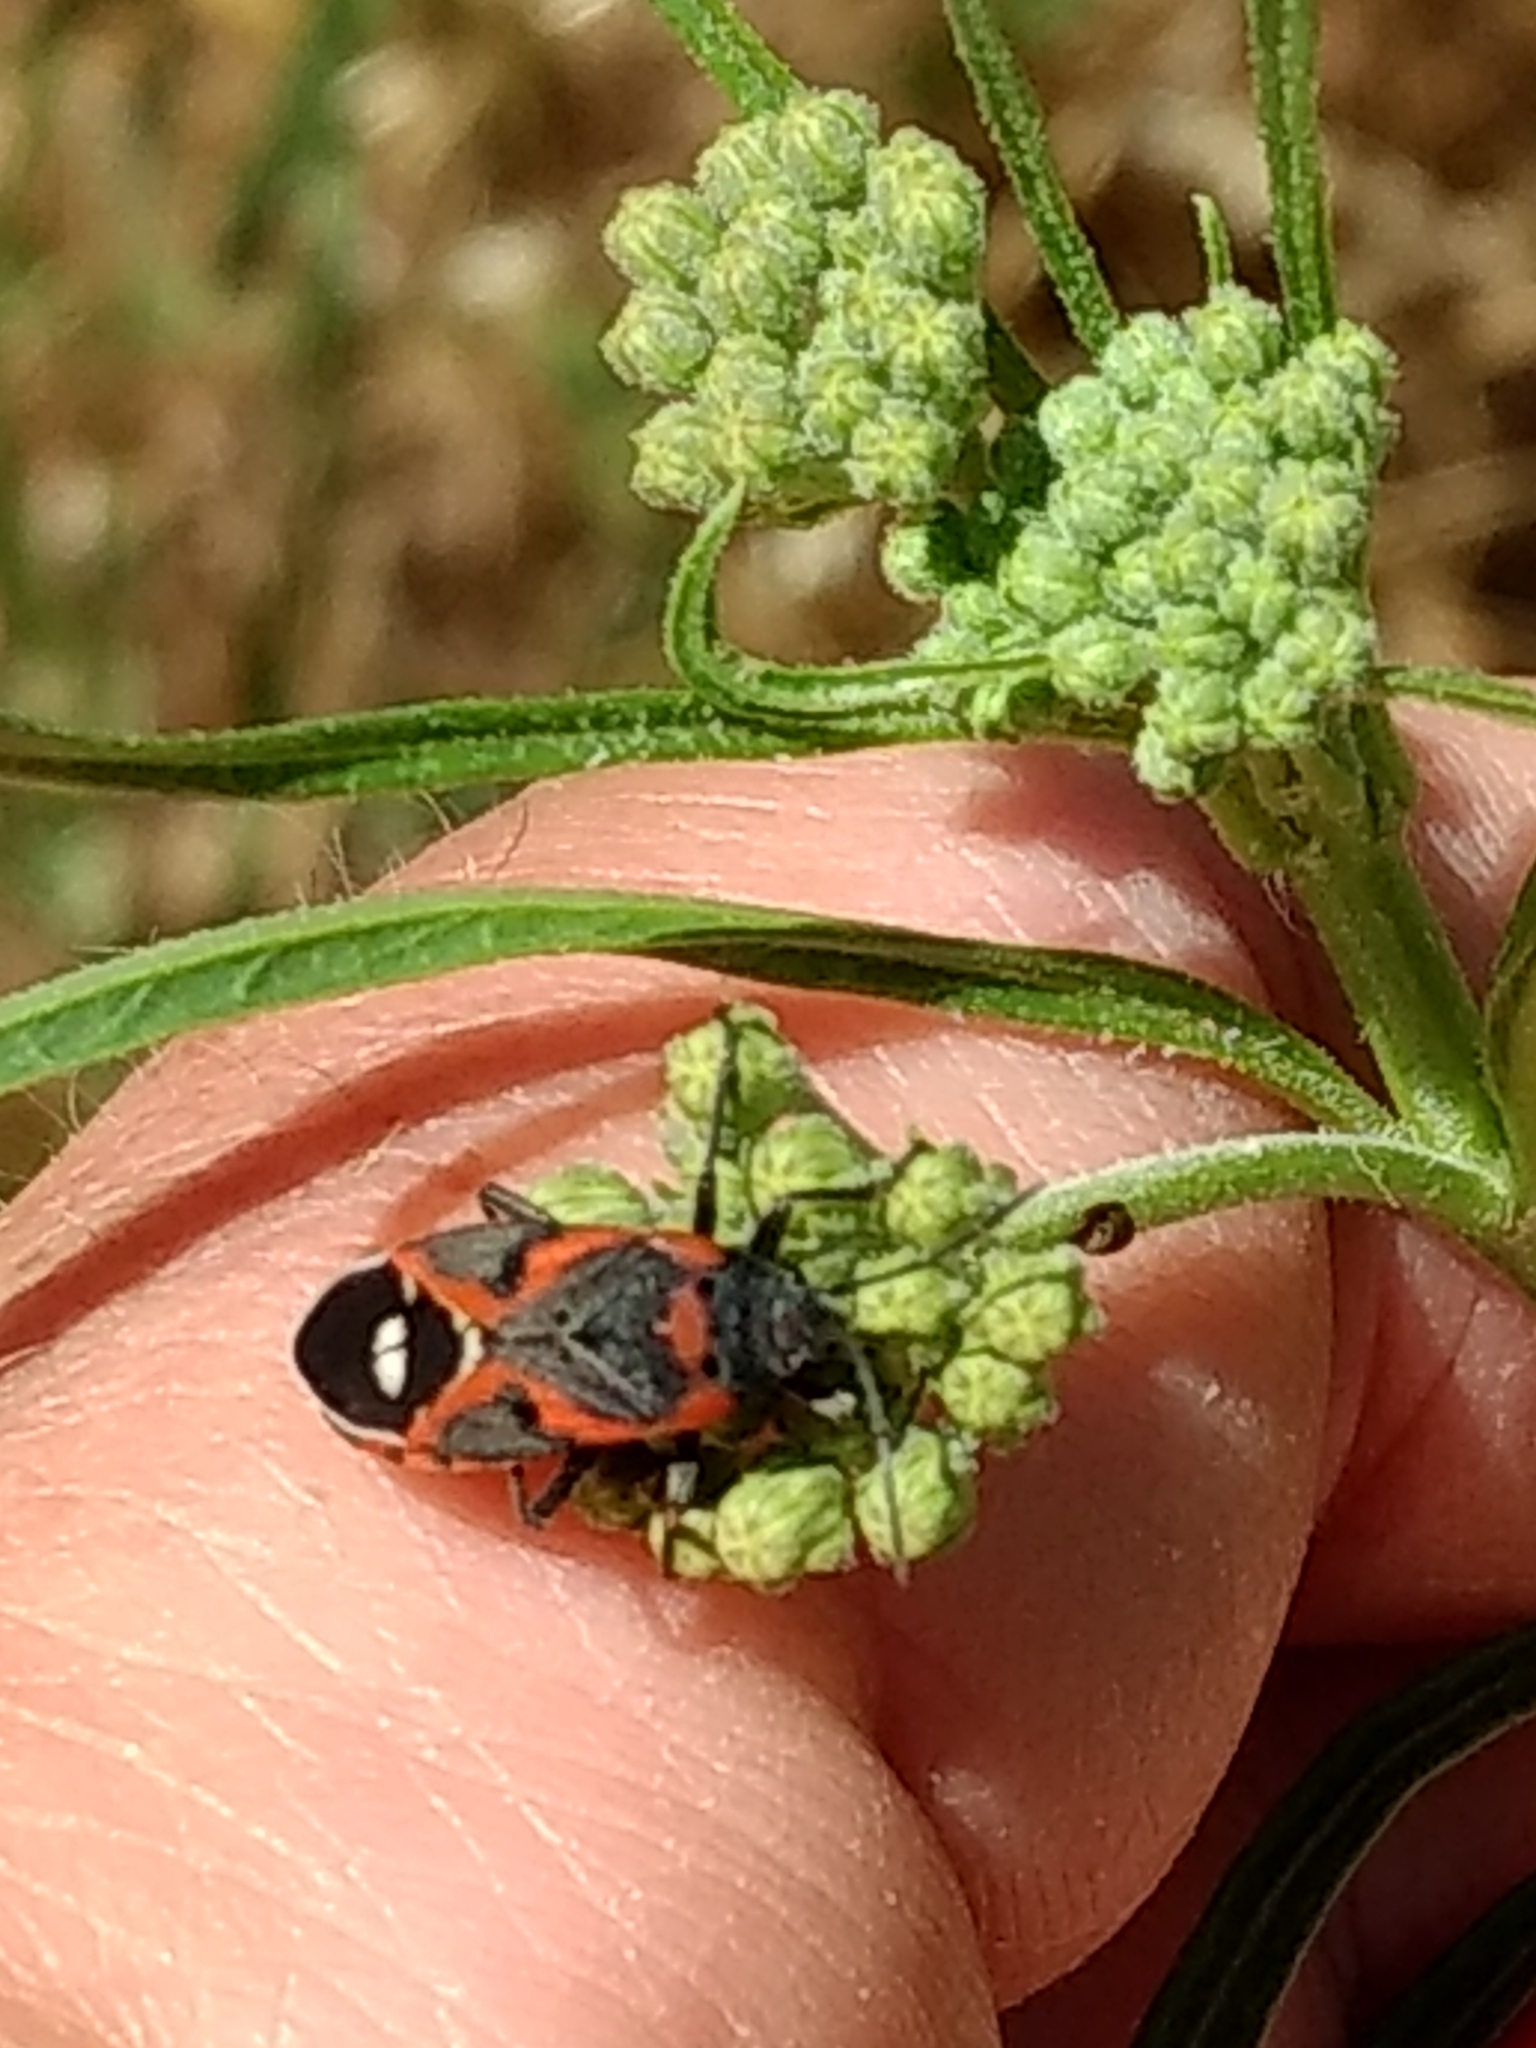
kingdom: Animalia
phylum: Arthropoda
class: Insecta
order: Hemiptera
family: Lygaeidae
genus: Lygaeus
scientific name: Lygaeus kalmii
